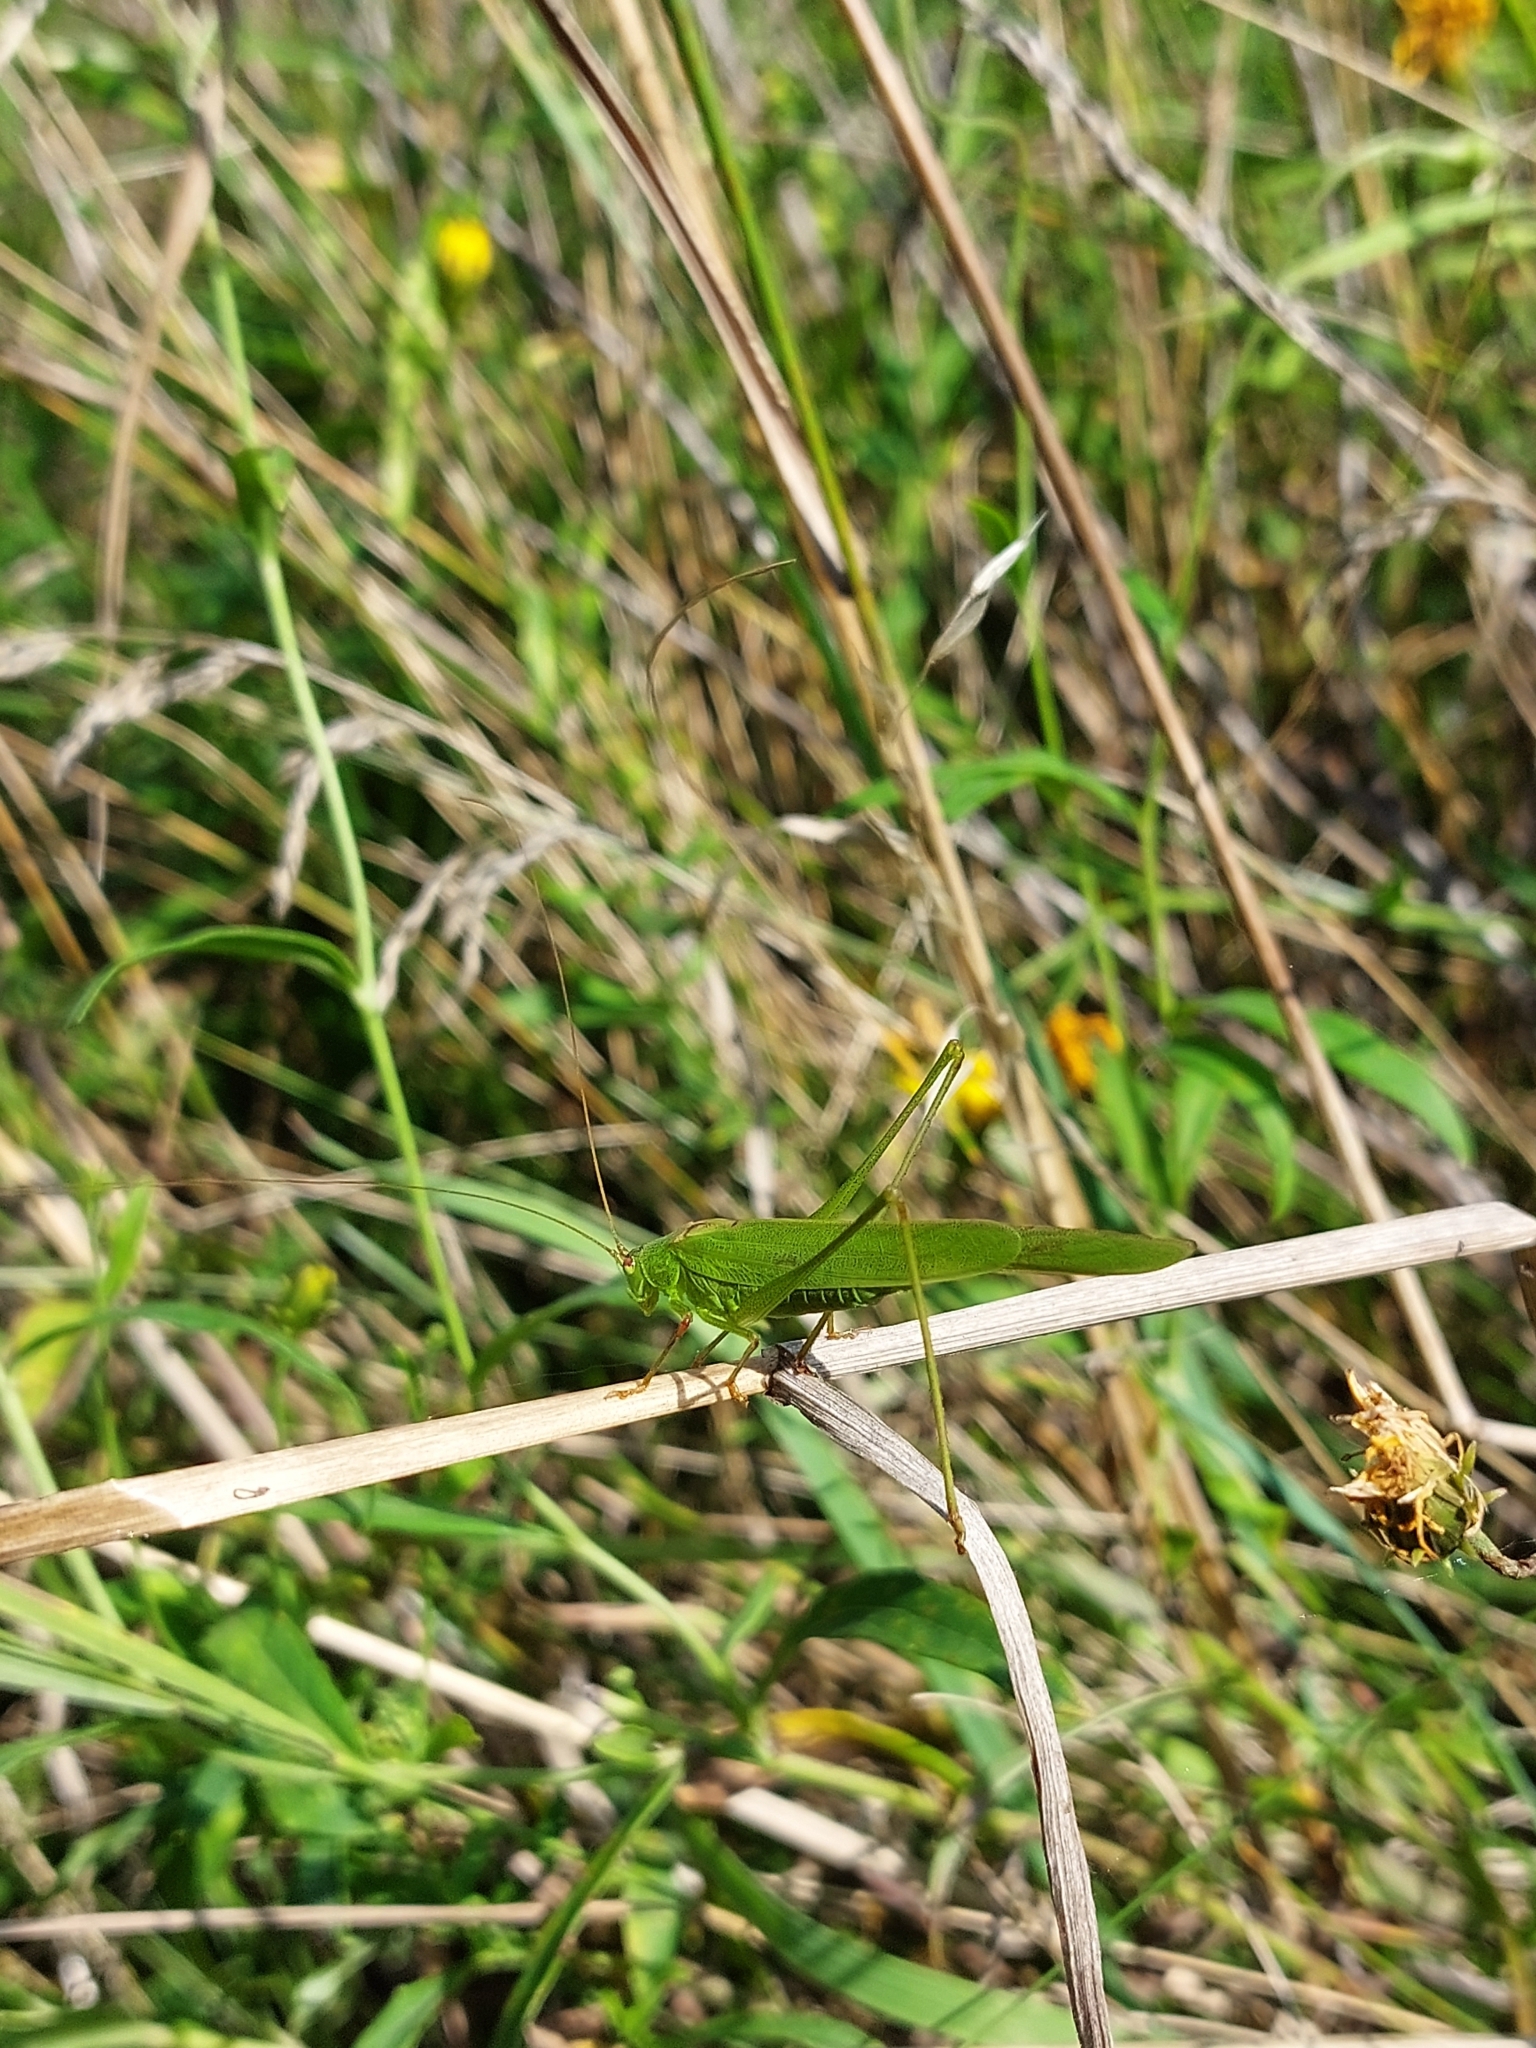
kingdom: Animalia
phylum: Arthropoda
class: Insecta
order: Orthoptera
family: Tettigoniidae
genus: Phaneroptera
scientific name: Phaneroptera falcata
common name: Sickle-bearing bush-cricket
